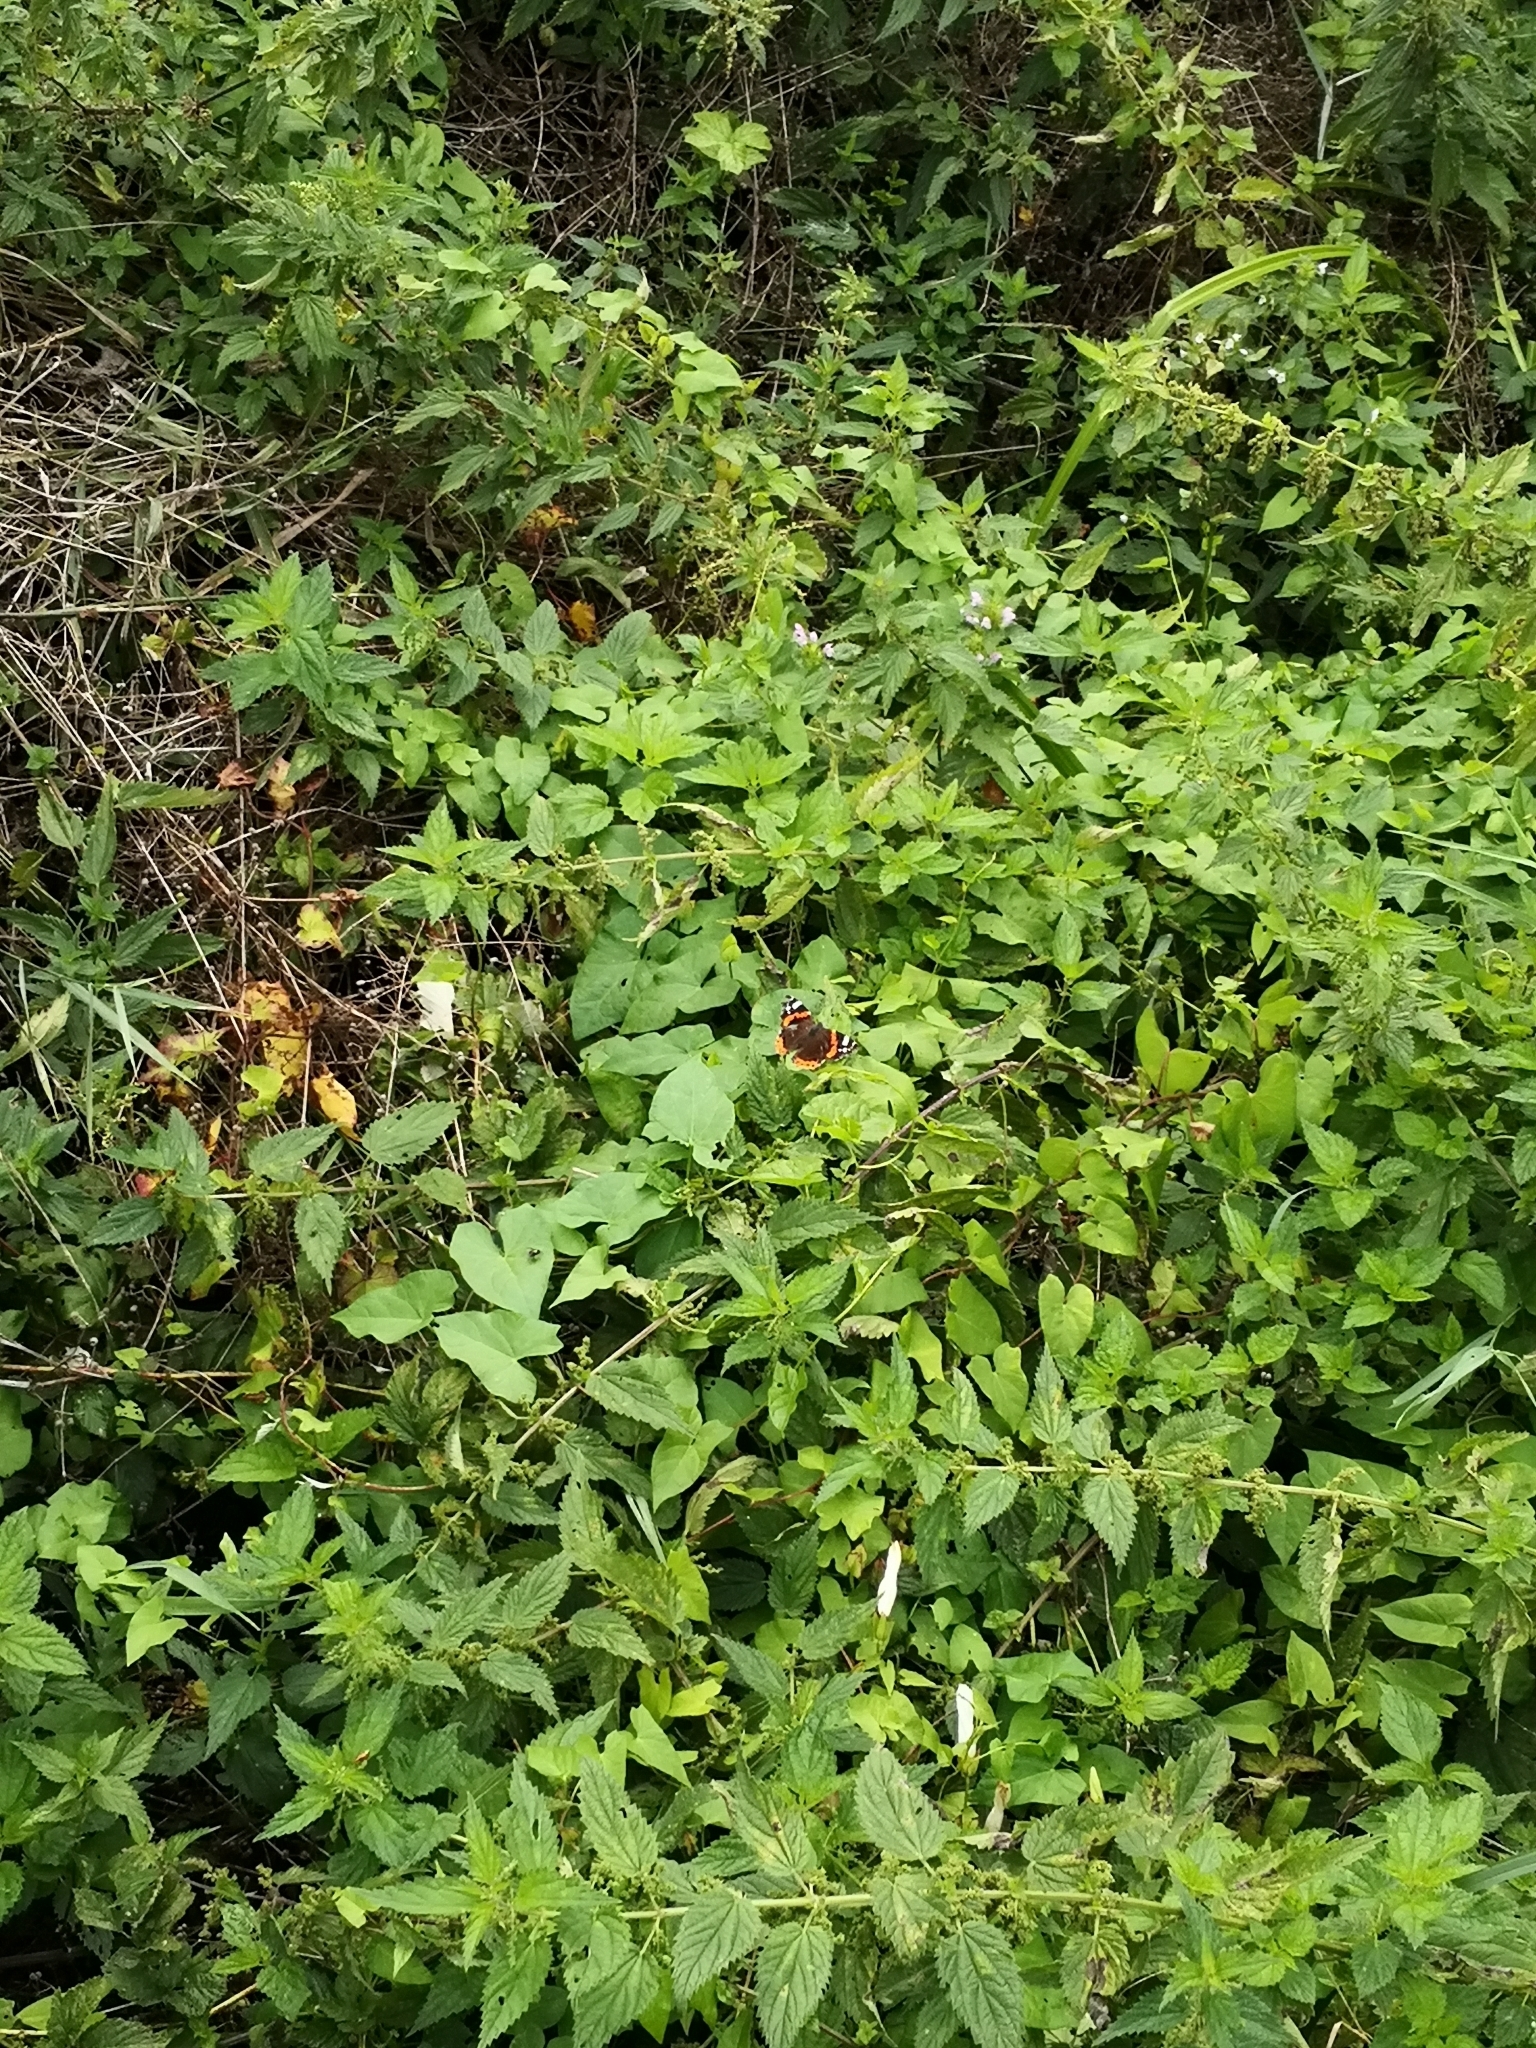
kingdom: Animalia
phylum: Arthropoda
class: Insecta
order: Lepidoptera
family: Nymphalidae
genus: Vanessa
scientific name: Vanessa atalanta
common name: Red admiral
